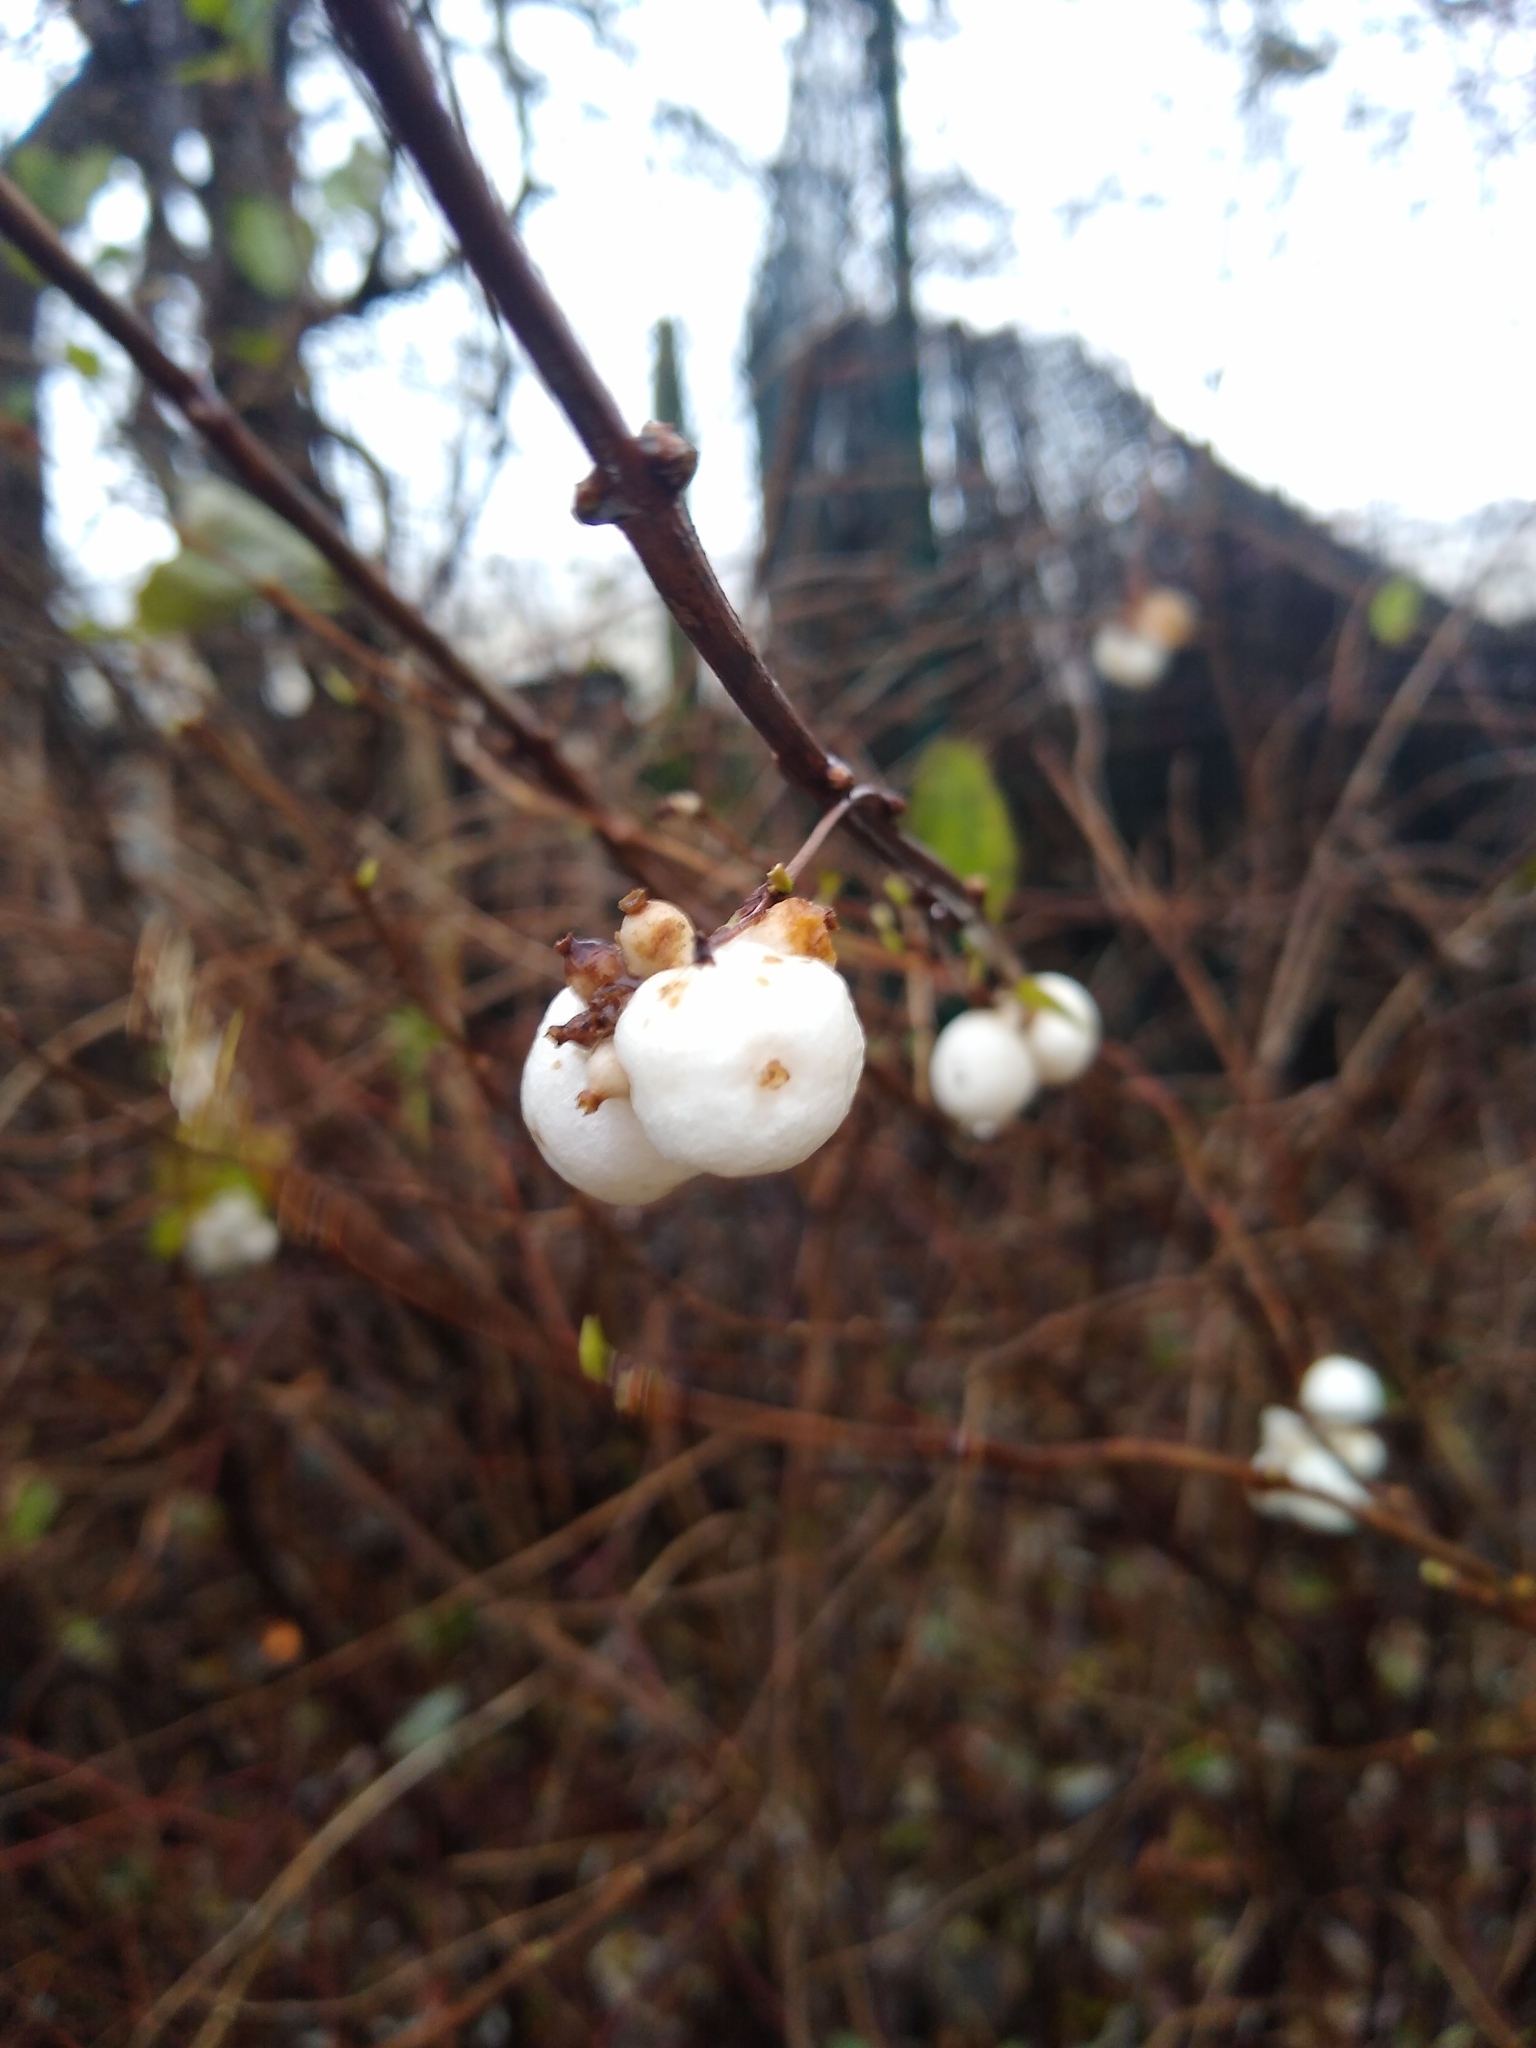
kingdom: Plantae
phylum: Tracheophyta
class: Magnoliopsida
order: Dipsacales
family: Caprifoliaceae
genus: Symphoricarpos
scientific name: Symphoricarpos albus
